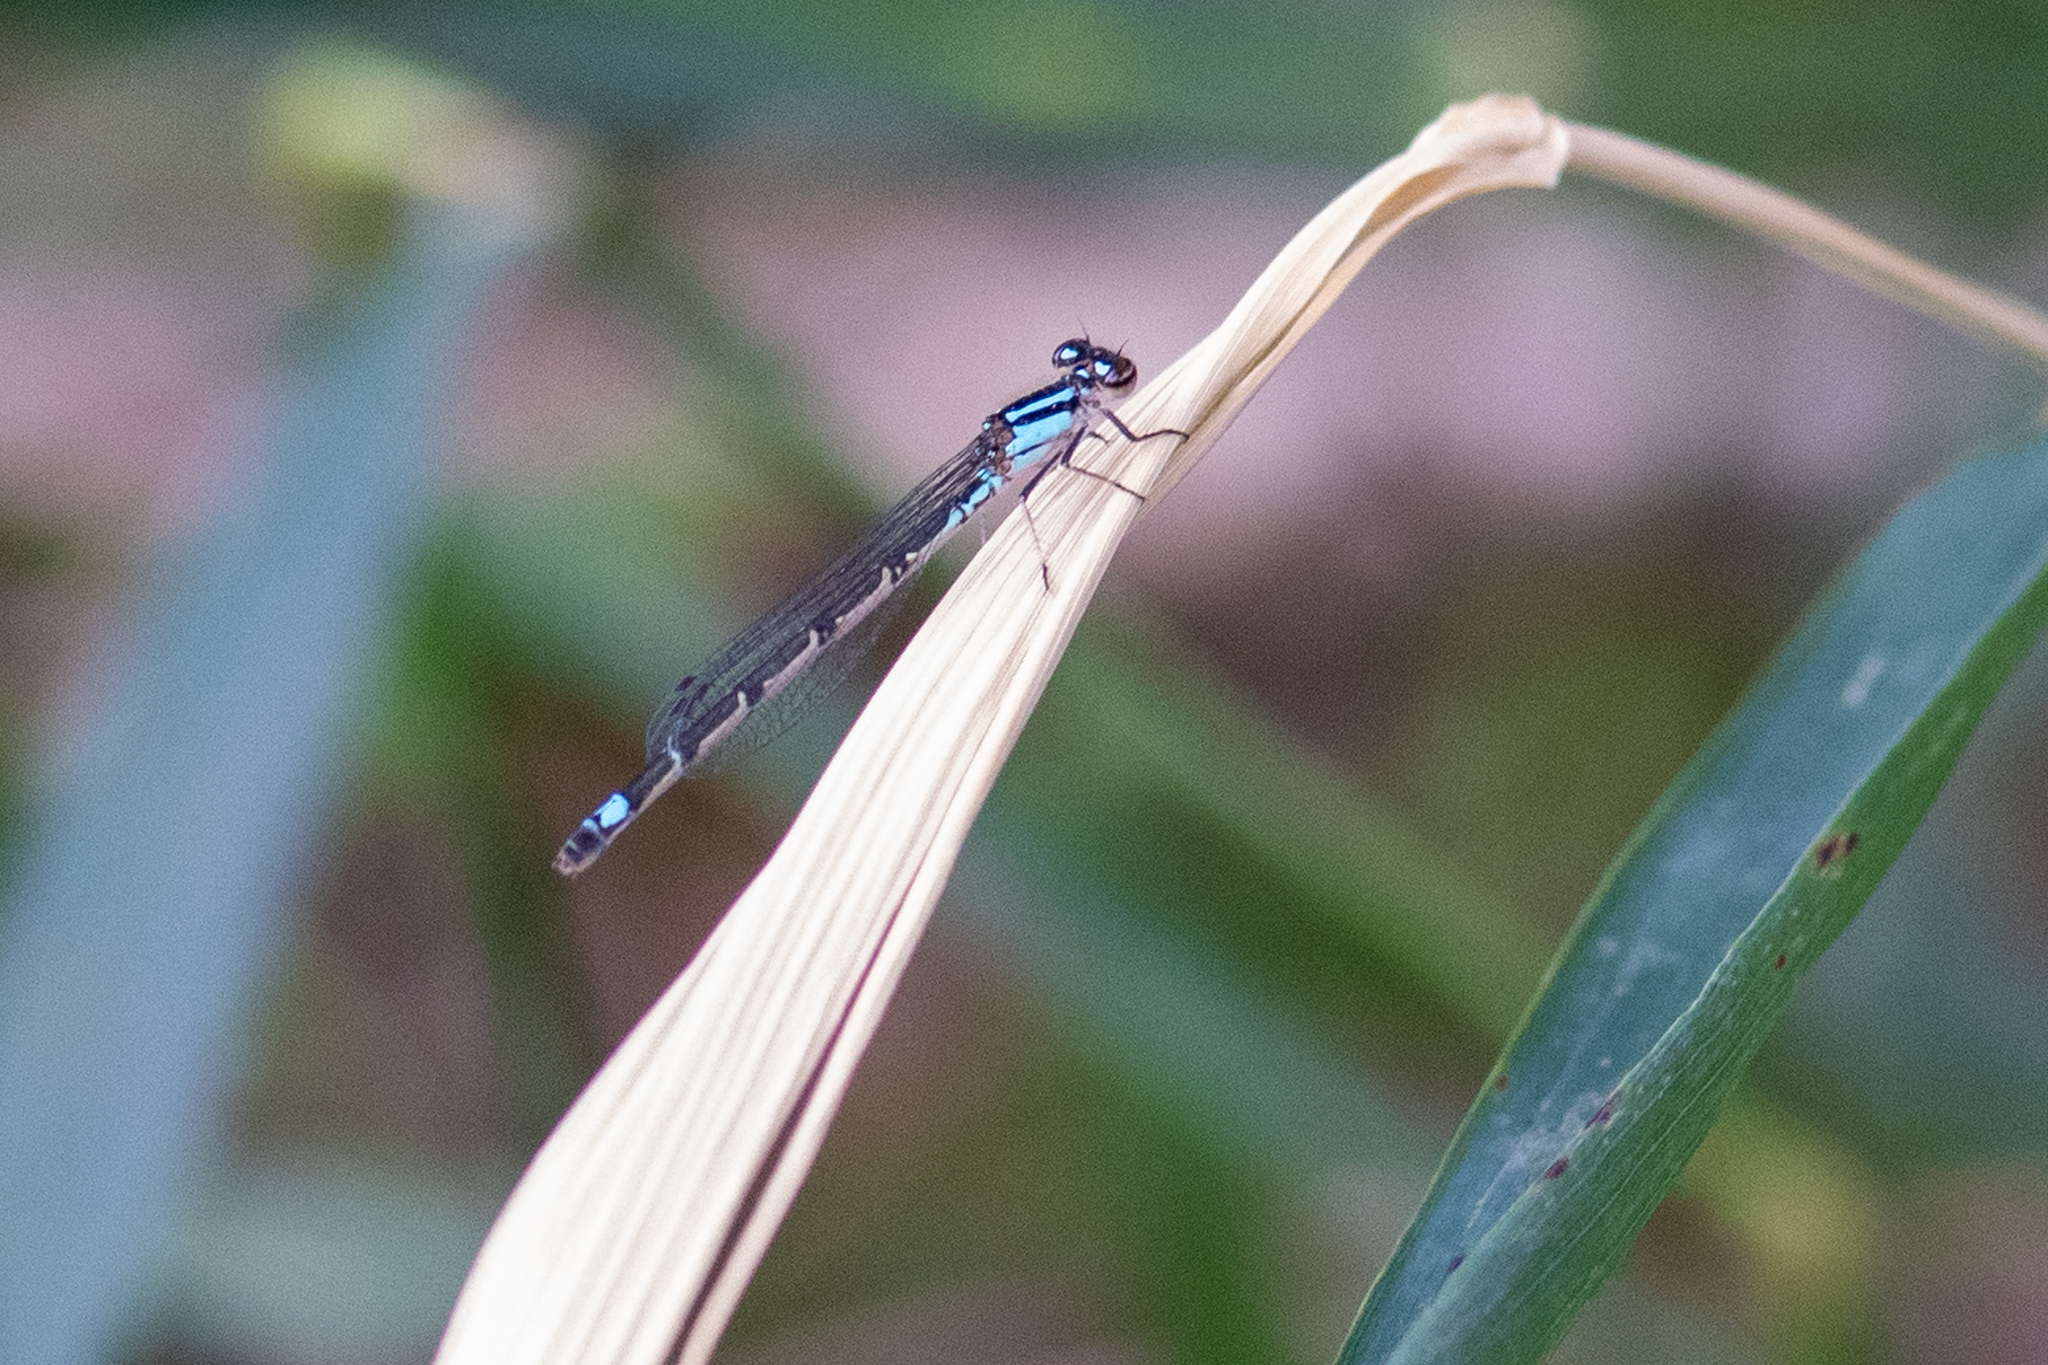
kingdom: Animalia
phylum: Arthropoda
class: Insecta
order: Odonata
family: Coenagrionidae
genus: Enallagma
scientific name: Enallagma geminatum
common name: Skimming bluet
